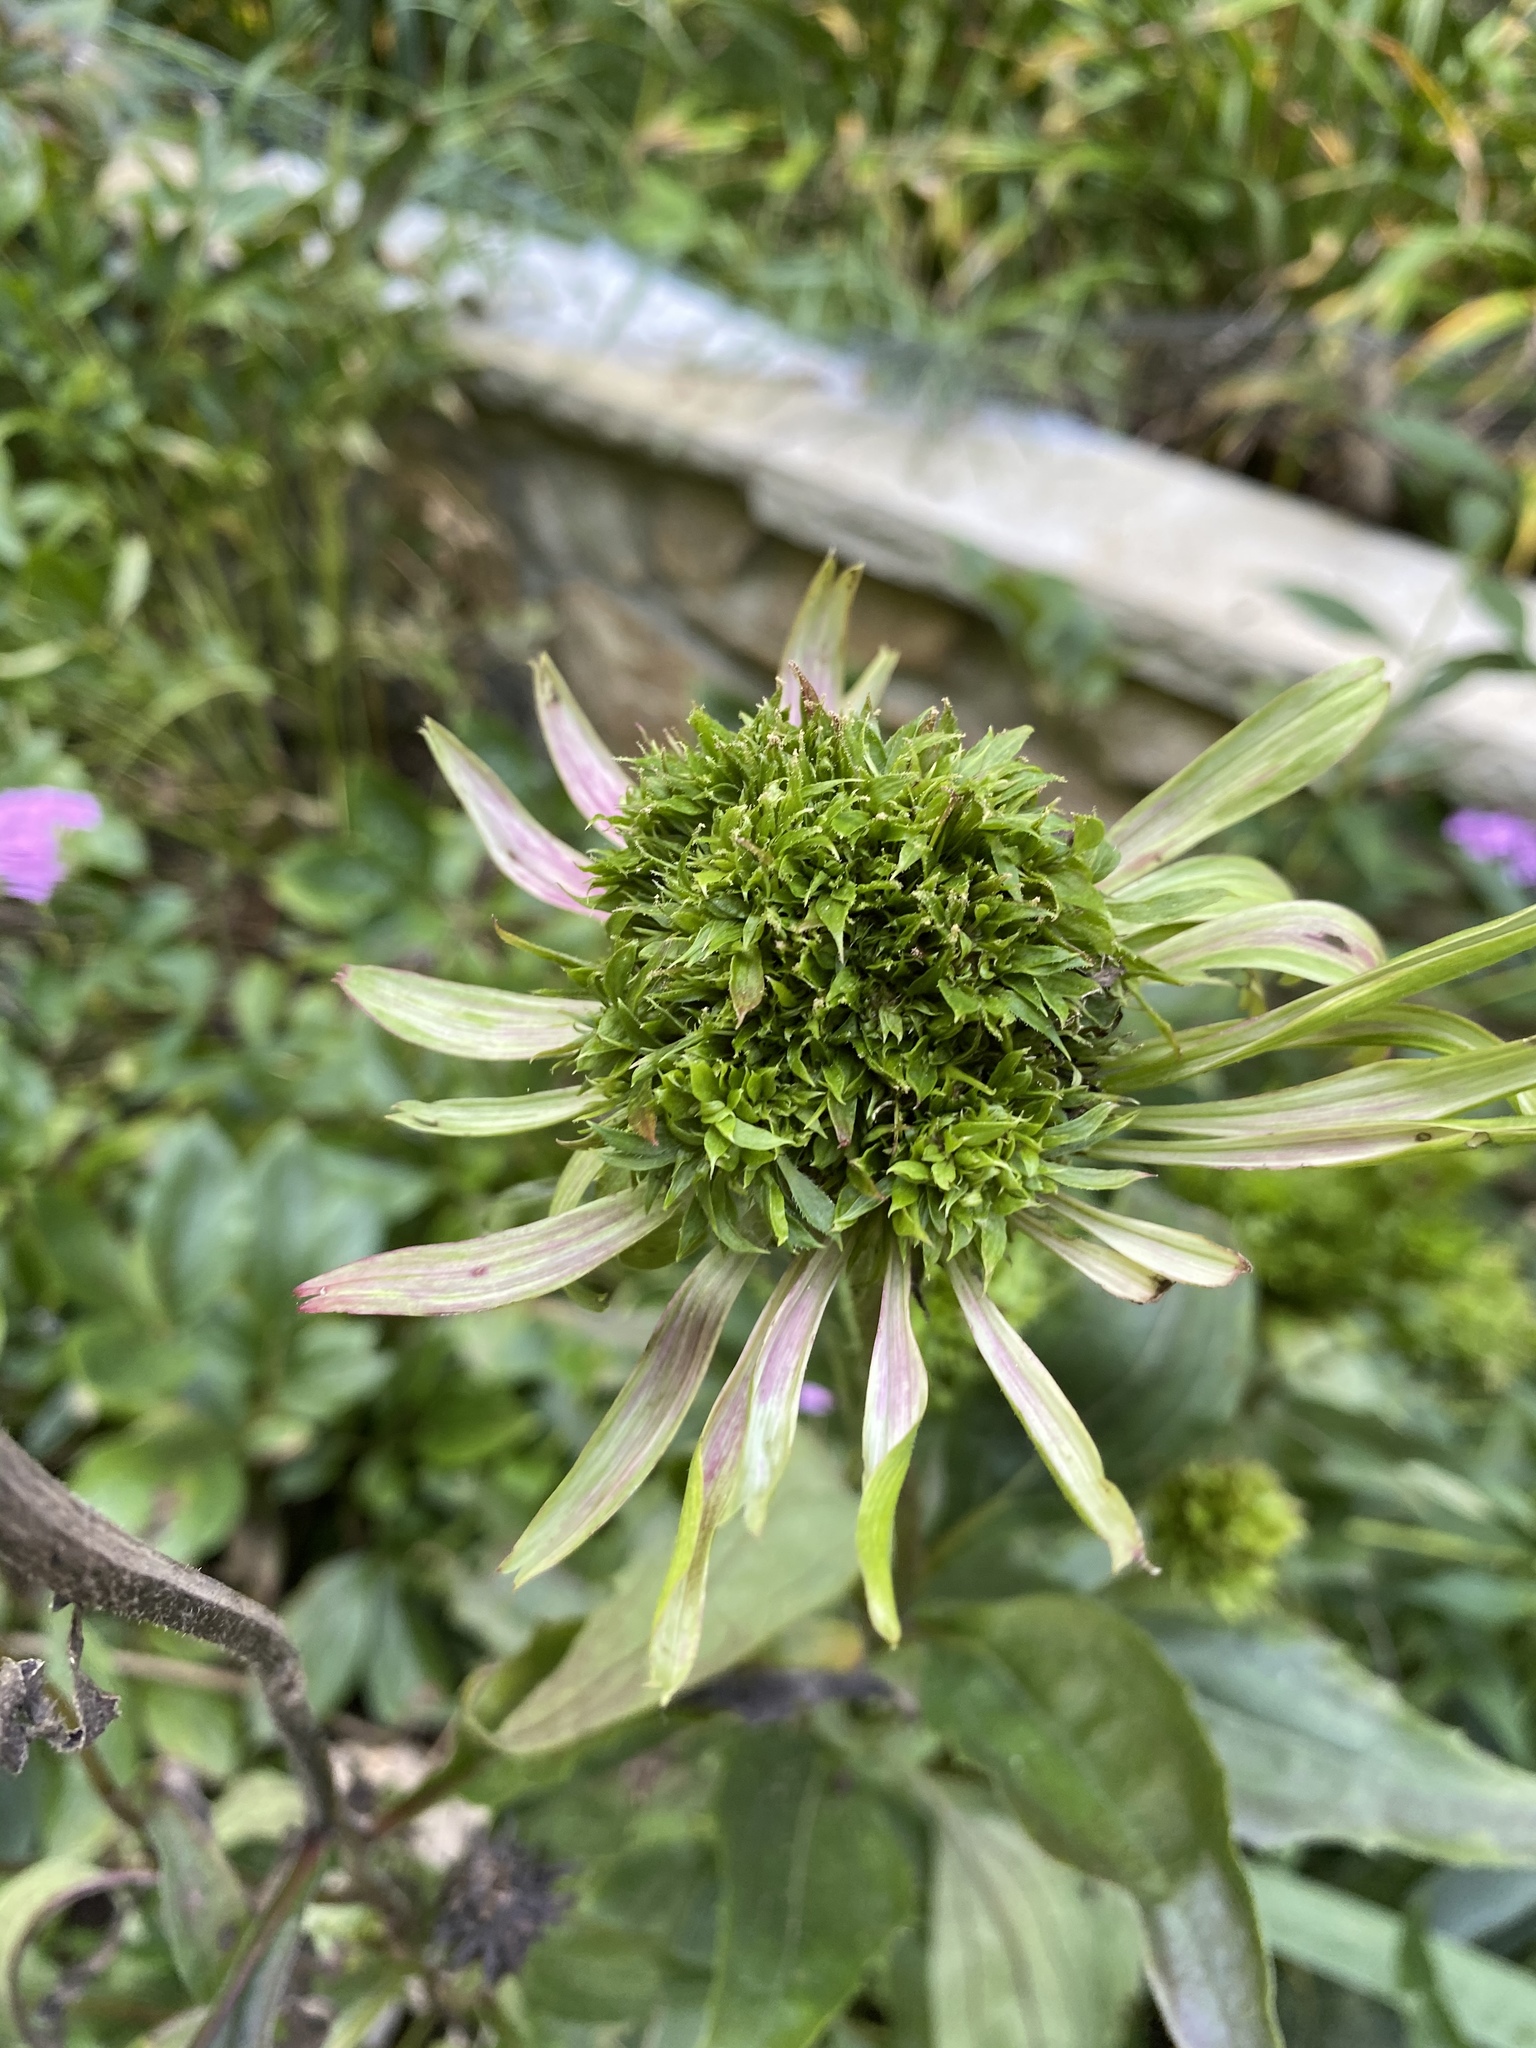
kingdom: Bacteria
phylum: Firmicutes
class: Bacilli
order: Acholeplasmatales
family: Acholeplasmataceae
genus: Phytoplasma
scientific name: Phytoplasma
